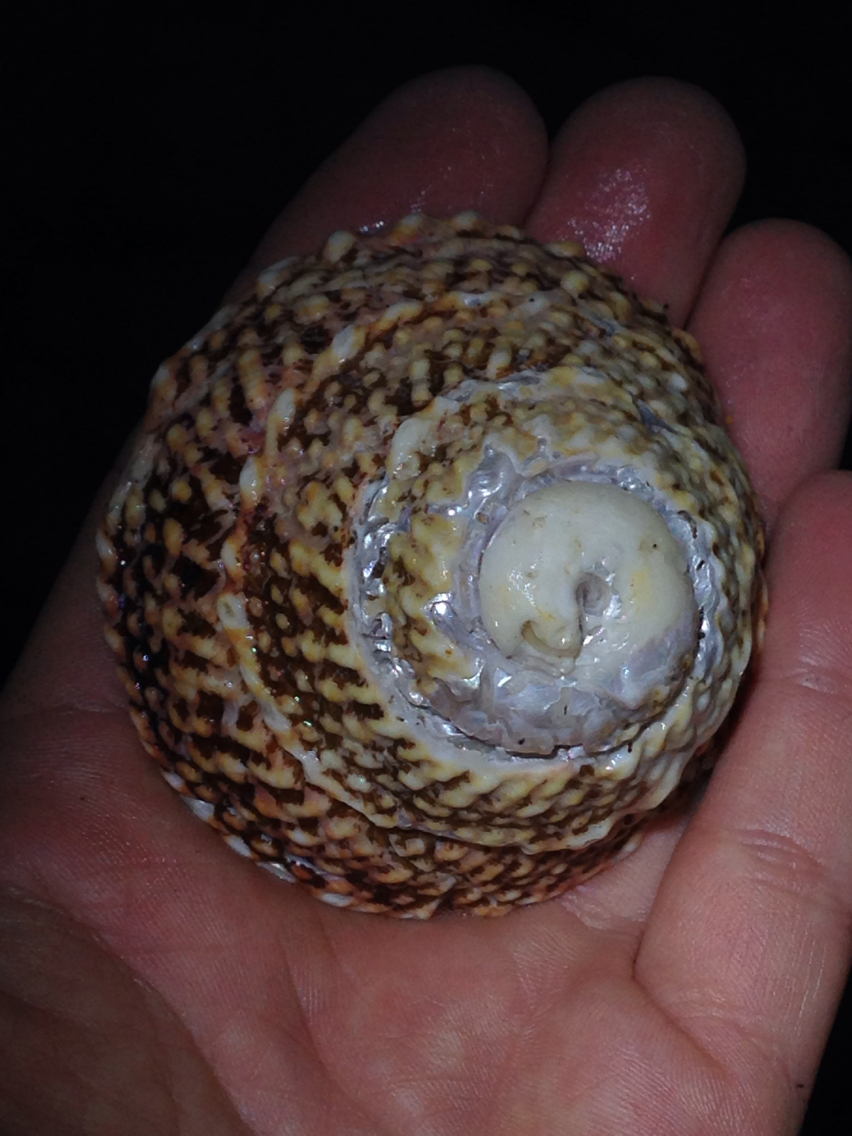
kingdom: Animalia
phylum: Mollusca
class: Gastropoda
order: Trochida
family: Turbinidae
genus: Pomaulax
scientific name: Pomaulax gibberosus
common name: Red turban
